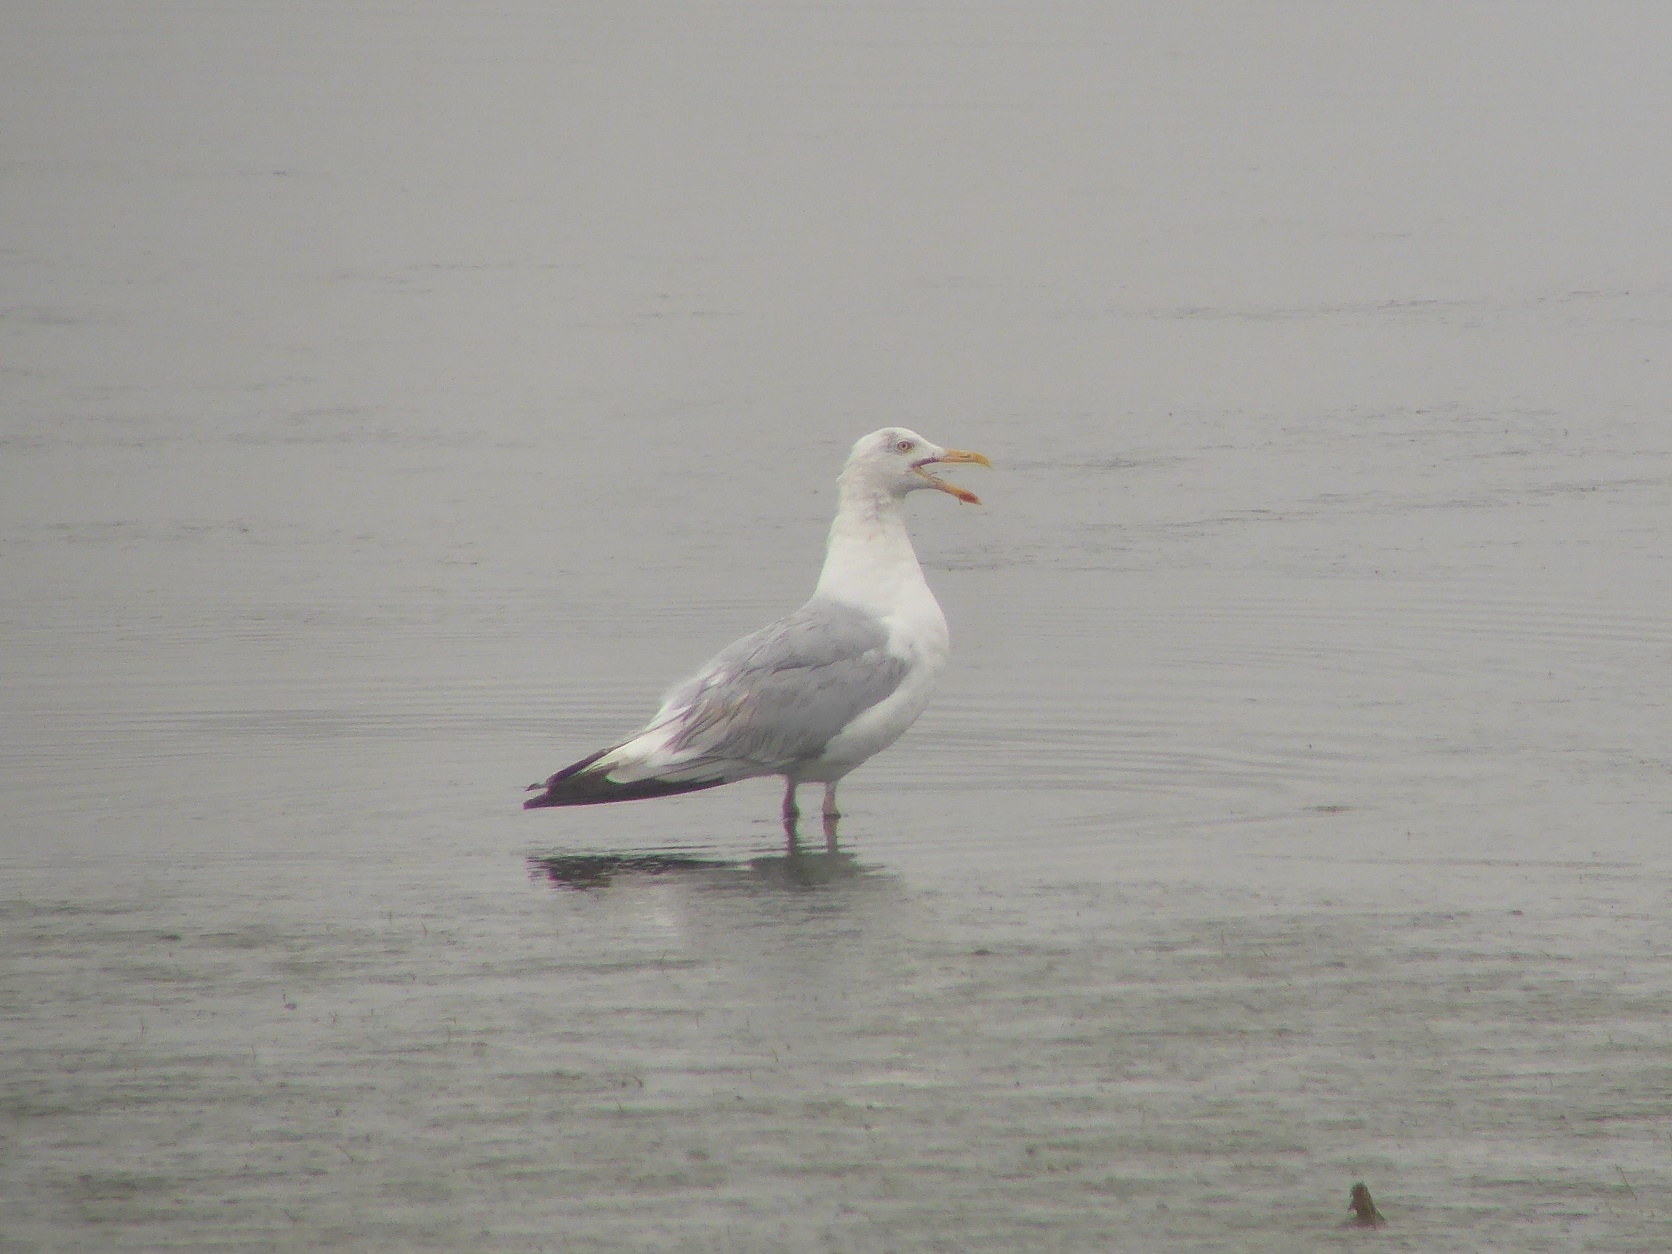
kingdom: Animalia
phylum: Chordata
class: Aves
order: Charadriiformes
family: Laridae
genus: Larus
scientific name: Larus argentatus
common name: Herring gull
